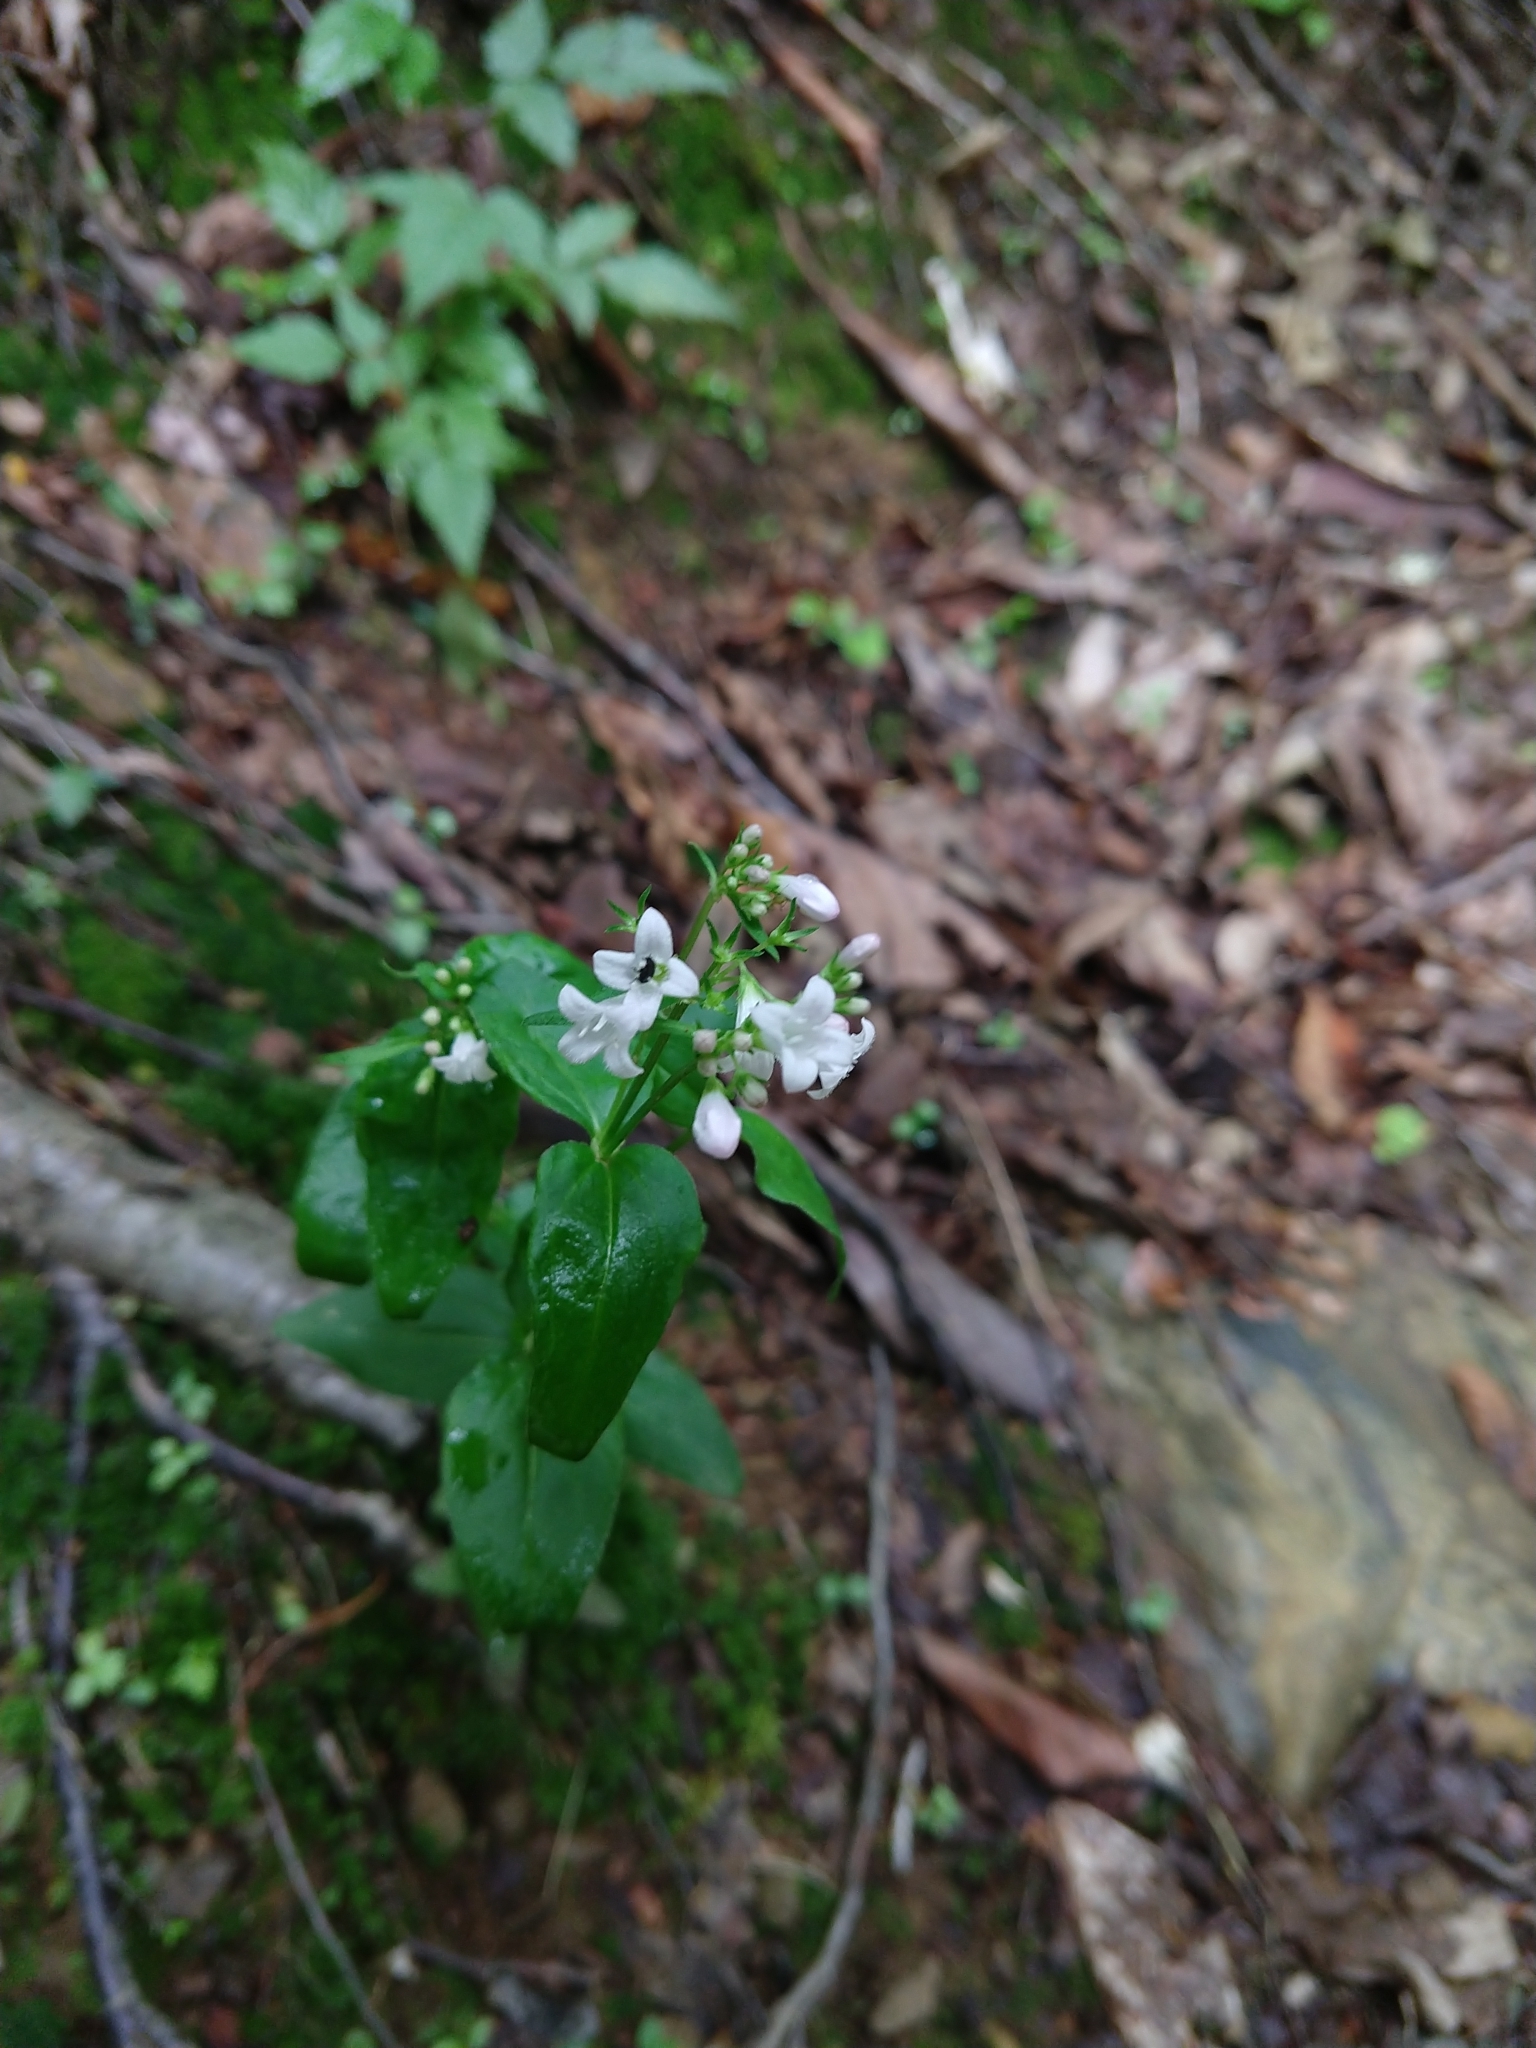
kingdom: Plantae
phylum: Tracheophyta
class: Magnoliopsida
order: Gentianales
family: Rubiaceae
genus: Houstonia
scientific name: Houstonia purpurea
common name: Summer bluet
